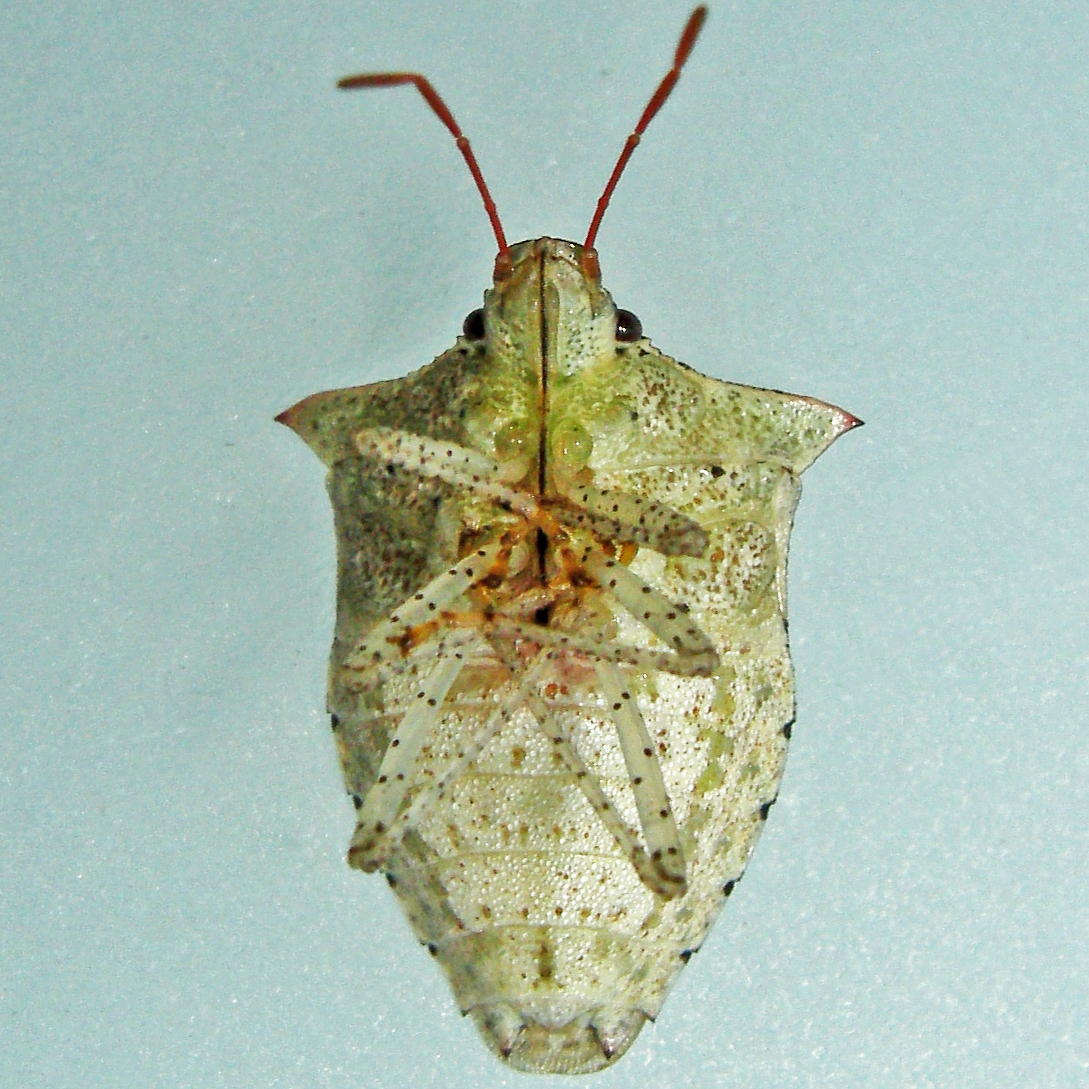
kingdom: Animalia
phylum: Arthropoda
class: Insecta
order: Hemiptera
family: Pentatomidae
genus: Euschistus
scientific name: Euschistus tristigmus
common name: Dusky stink bug
